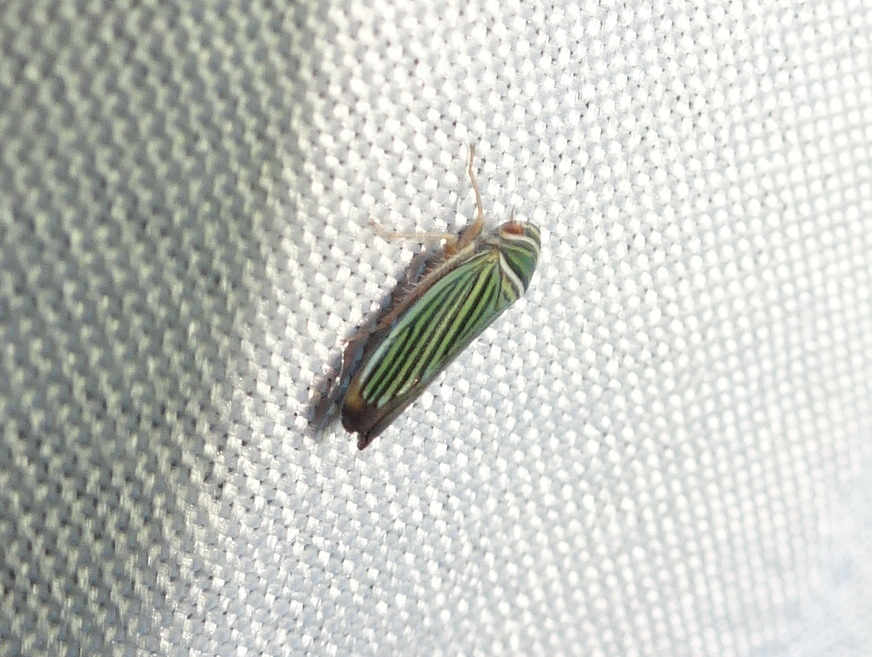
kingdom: Animalia
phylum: Arthropoda
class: Insecta
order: Hemiptera
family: Cicadellidae
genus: Tylozygus
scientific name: Tylozygus bifidus
